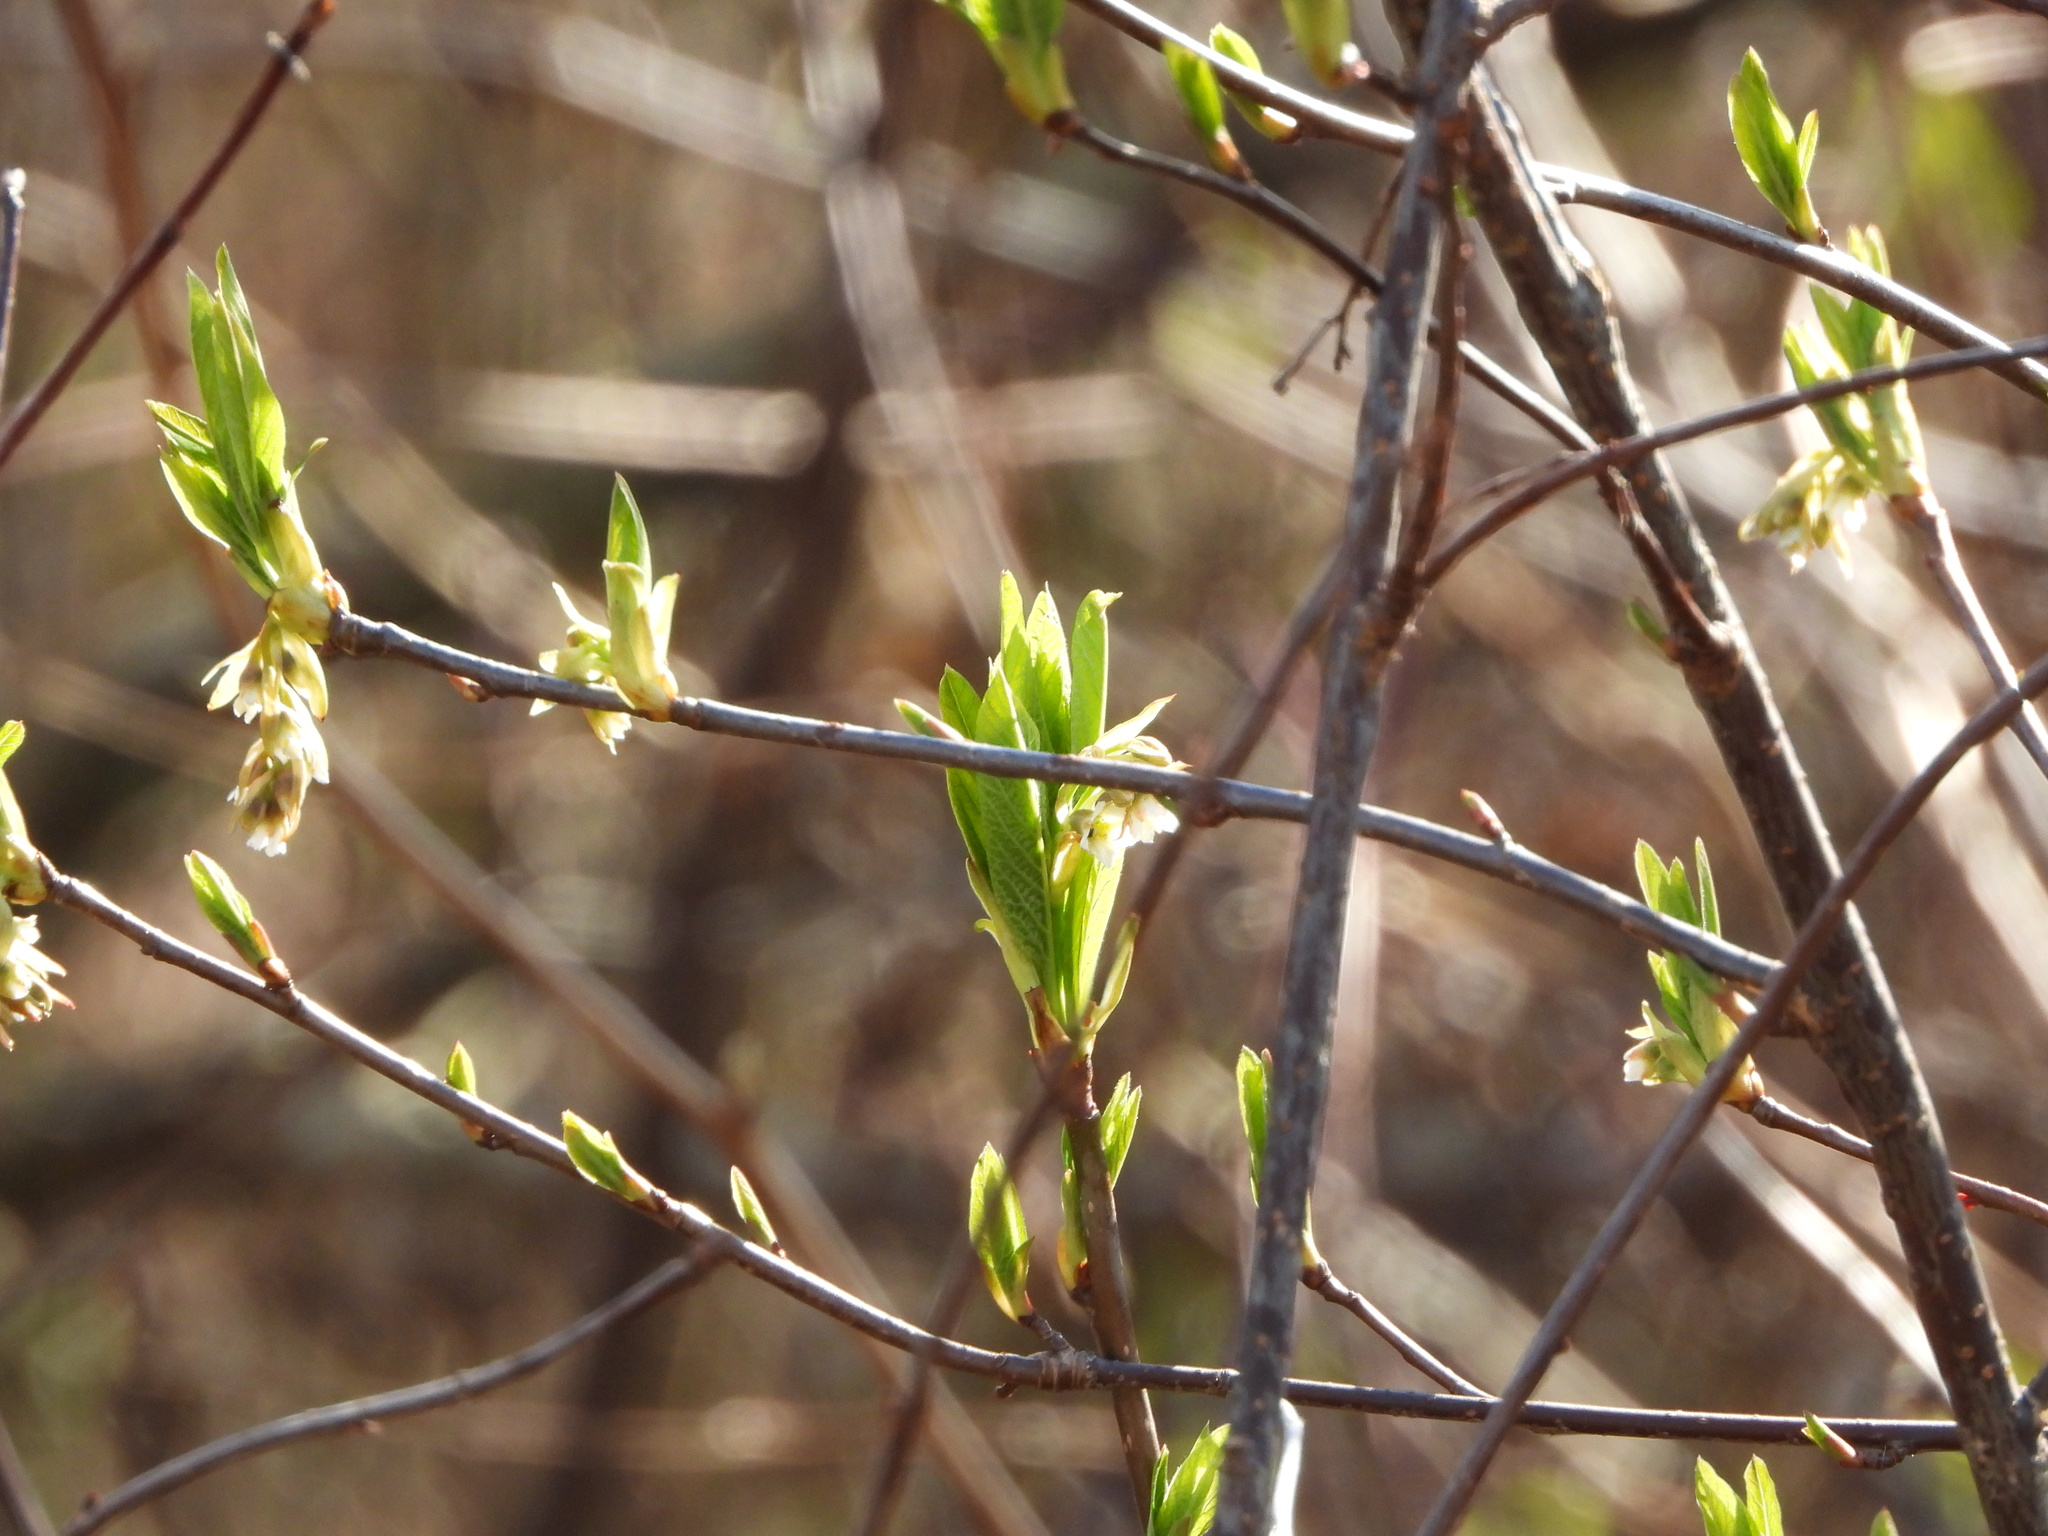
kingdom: Plantae
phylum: Tracheophyta
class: Magnoliopsida
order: Rosales
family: Rosaceae
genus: Oemleria
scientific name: Oemleria cerasiformis
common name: Osoberry
